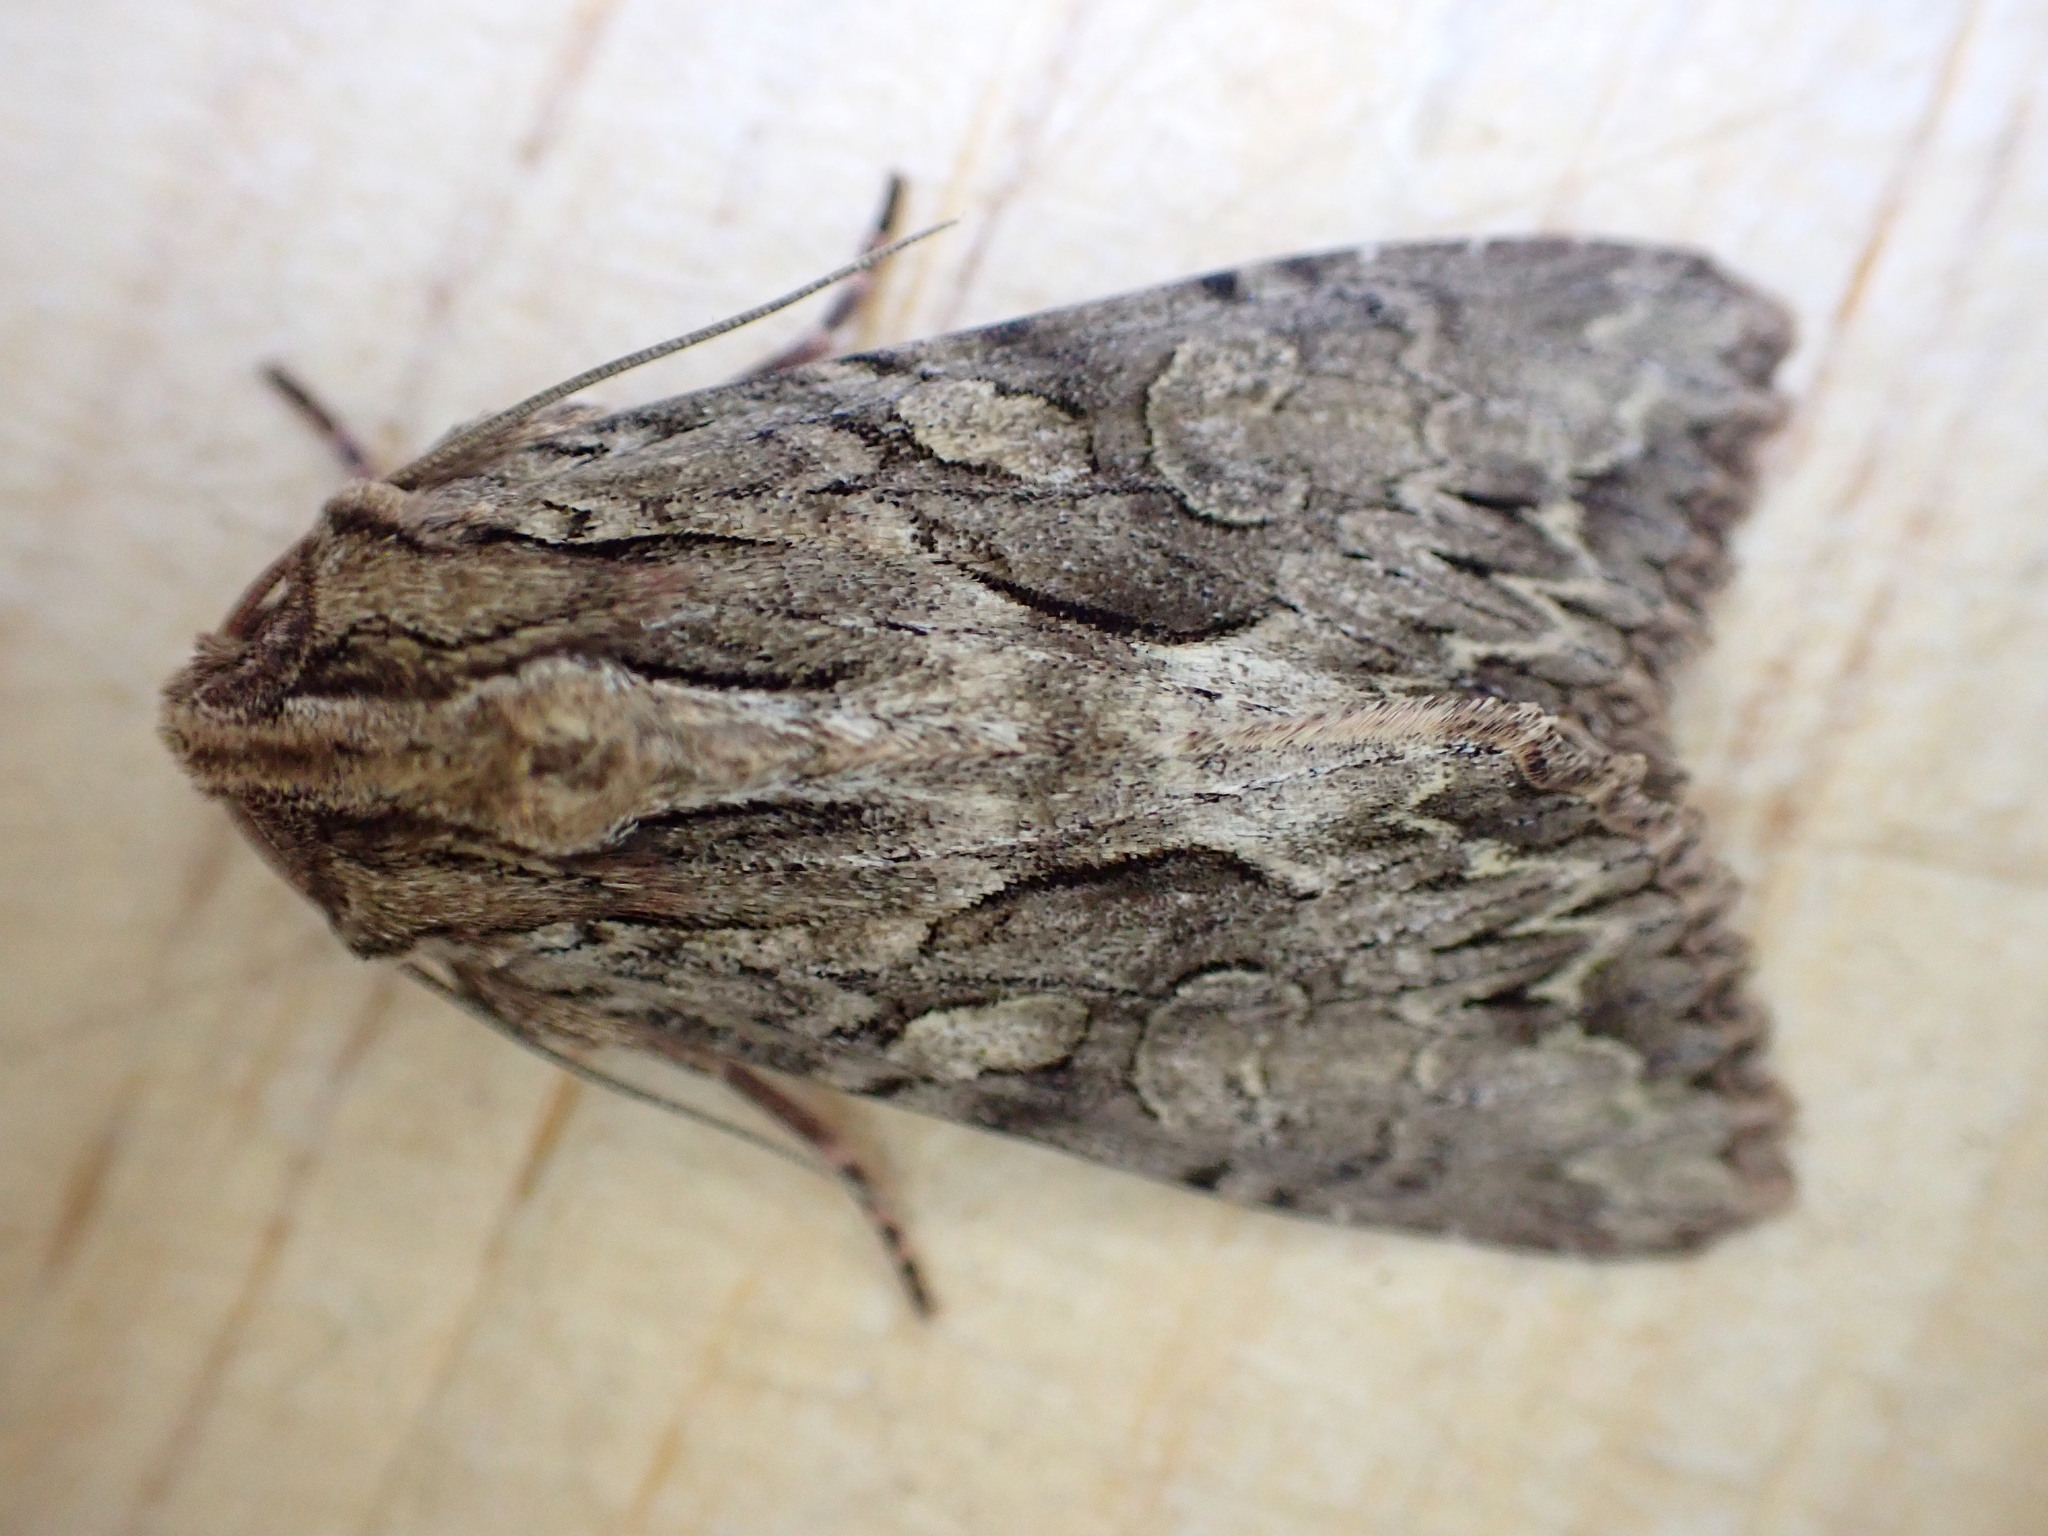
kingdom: Animalia
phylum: Arthropoda
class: Insecta
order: Lepidoptera
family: Noctuidae
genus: Apamea
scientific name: Apamea monoglypha
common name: Dark arches
